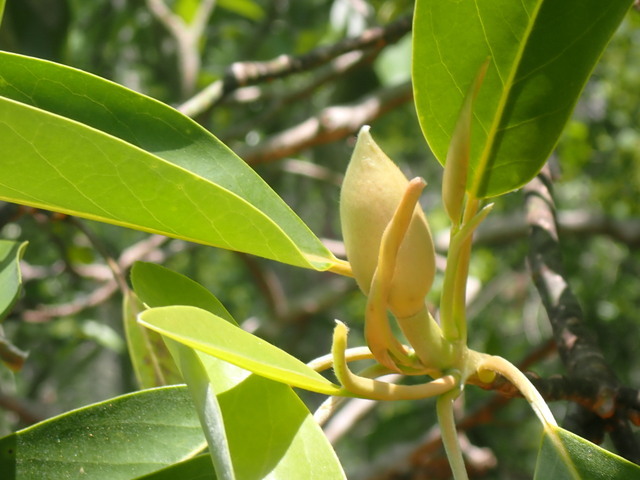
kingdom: Plantae
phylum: Tracheophyta
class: Magnoliopsida
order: Magnoliales
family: Magnoliaceae
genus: Magnolia
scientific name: Magnolia virginiana
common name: Swamp bay
